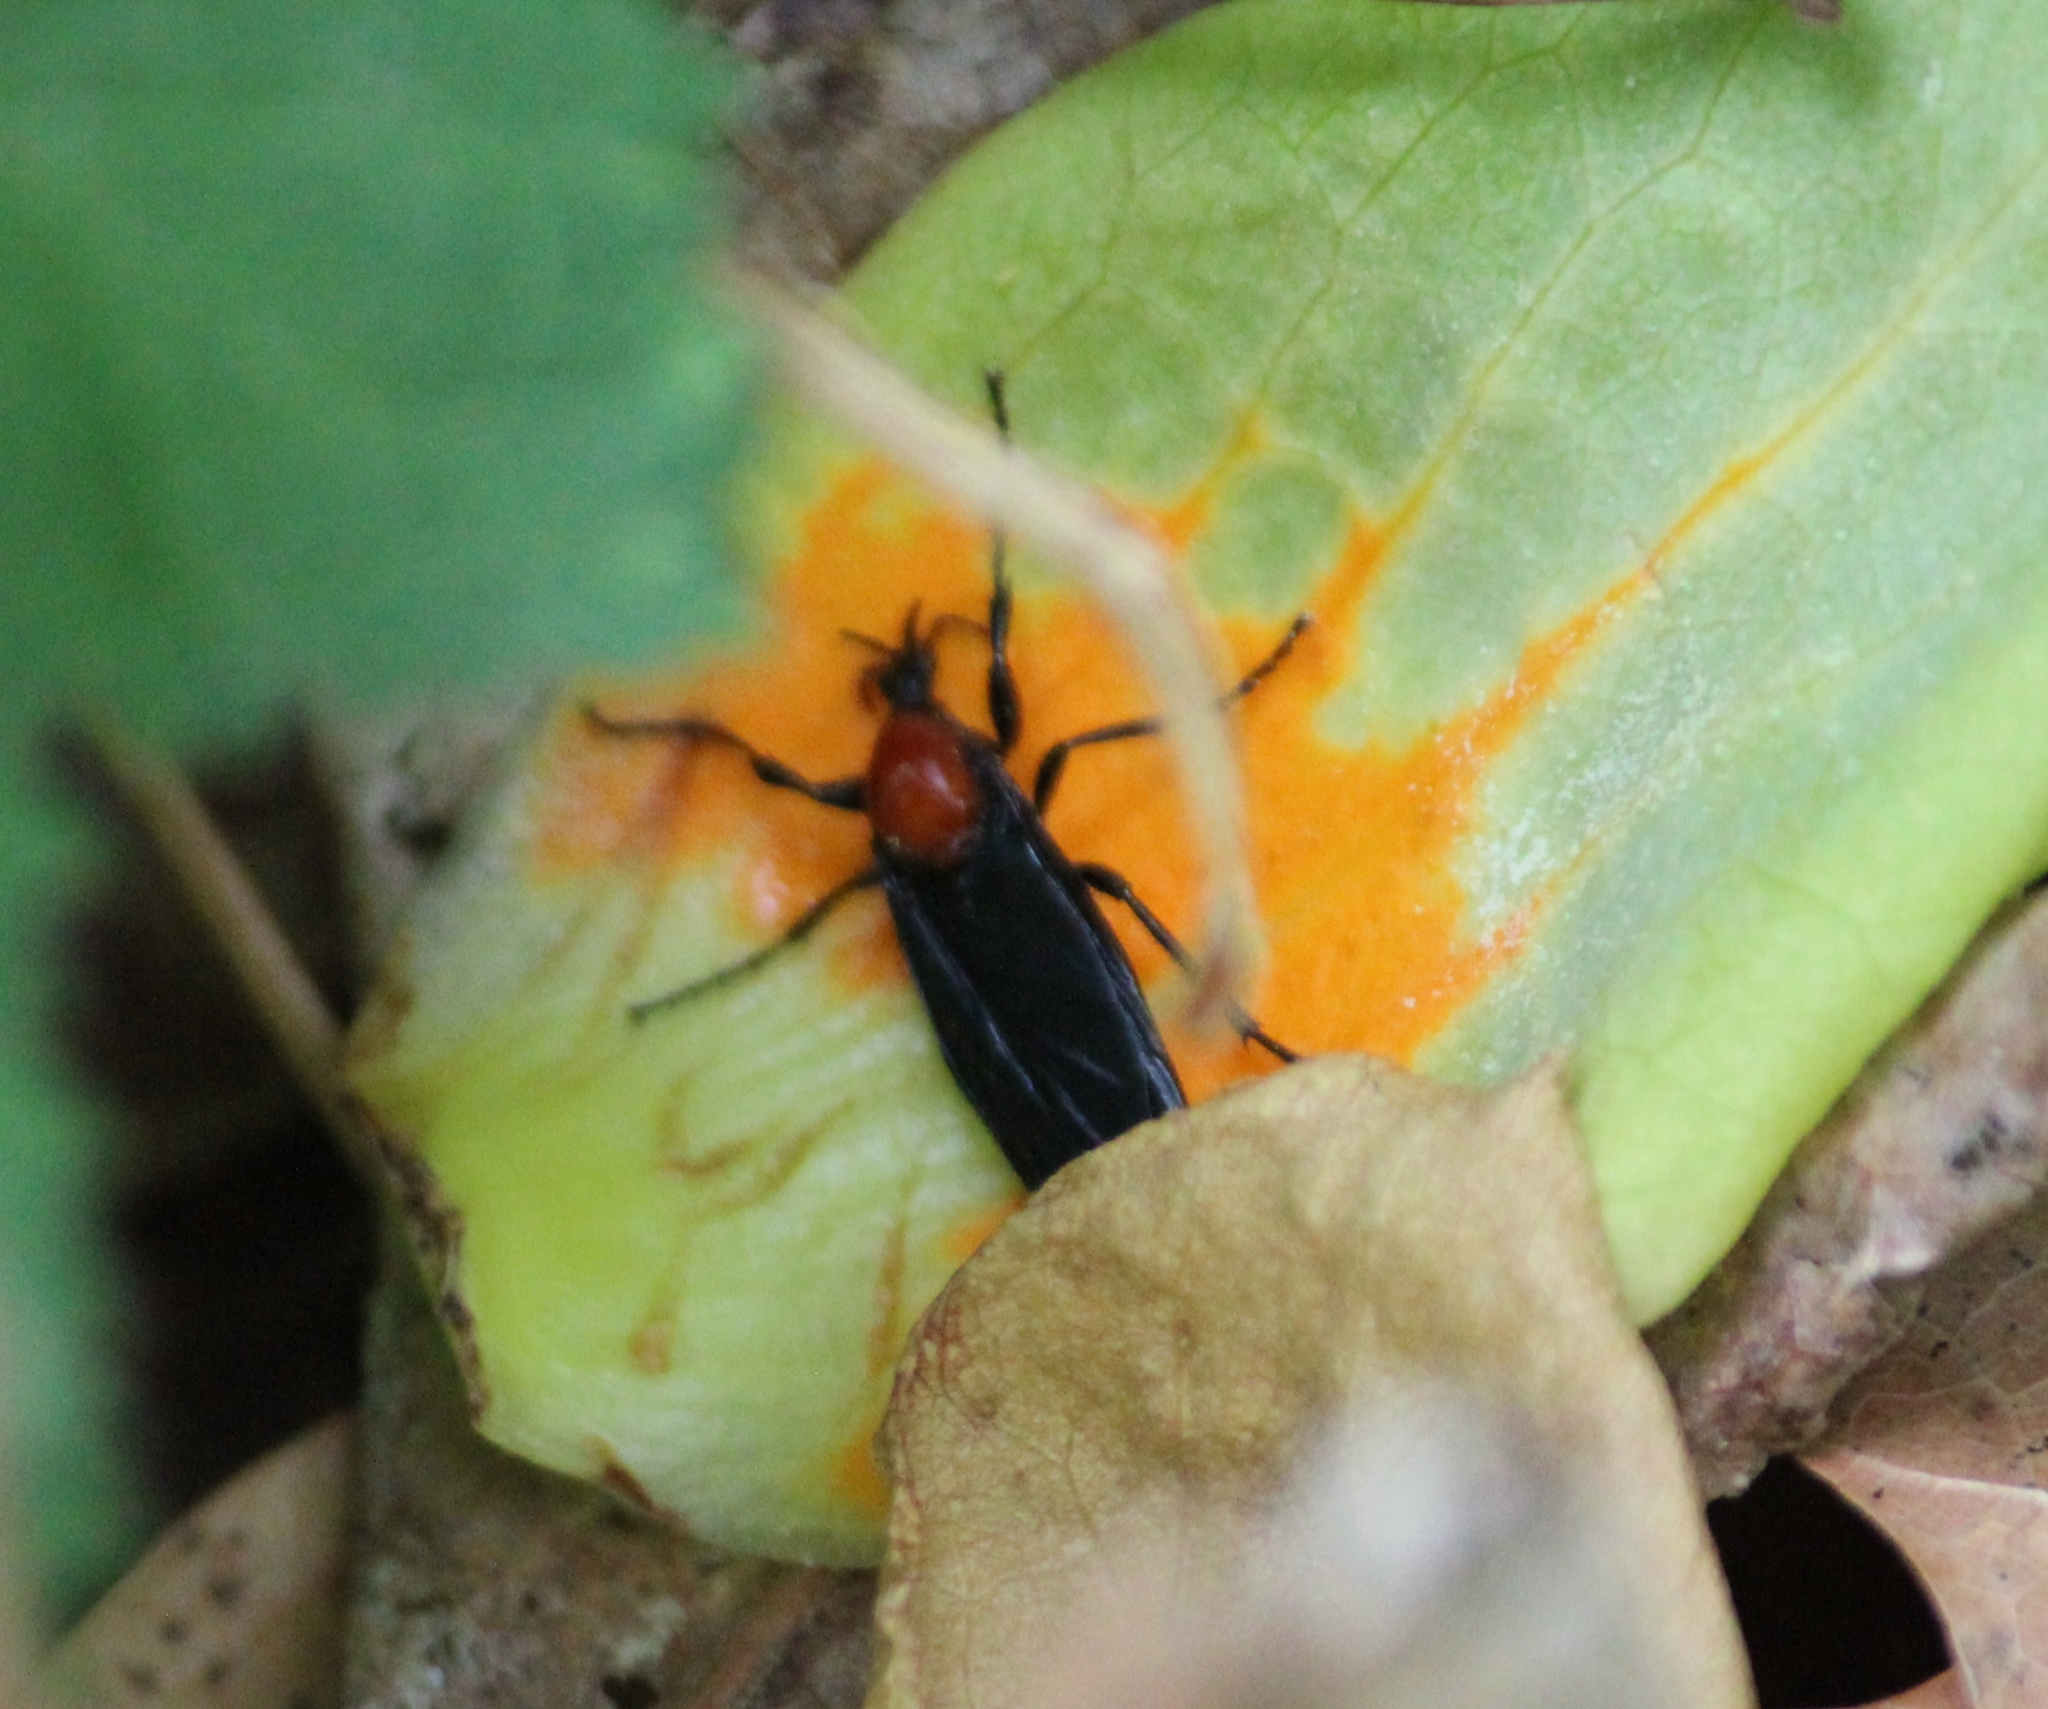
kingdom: Animalia
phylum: Arthropoda
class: Insecta
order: Diptera
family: Bibionidae
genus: Bibio
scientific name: Bibio superfluus
